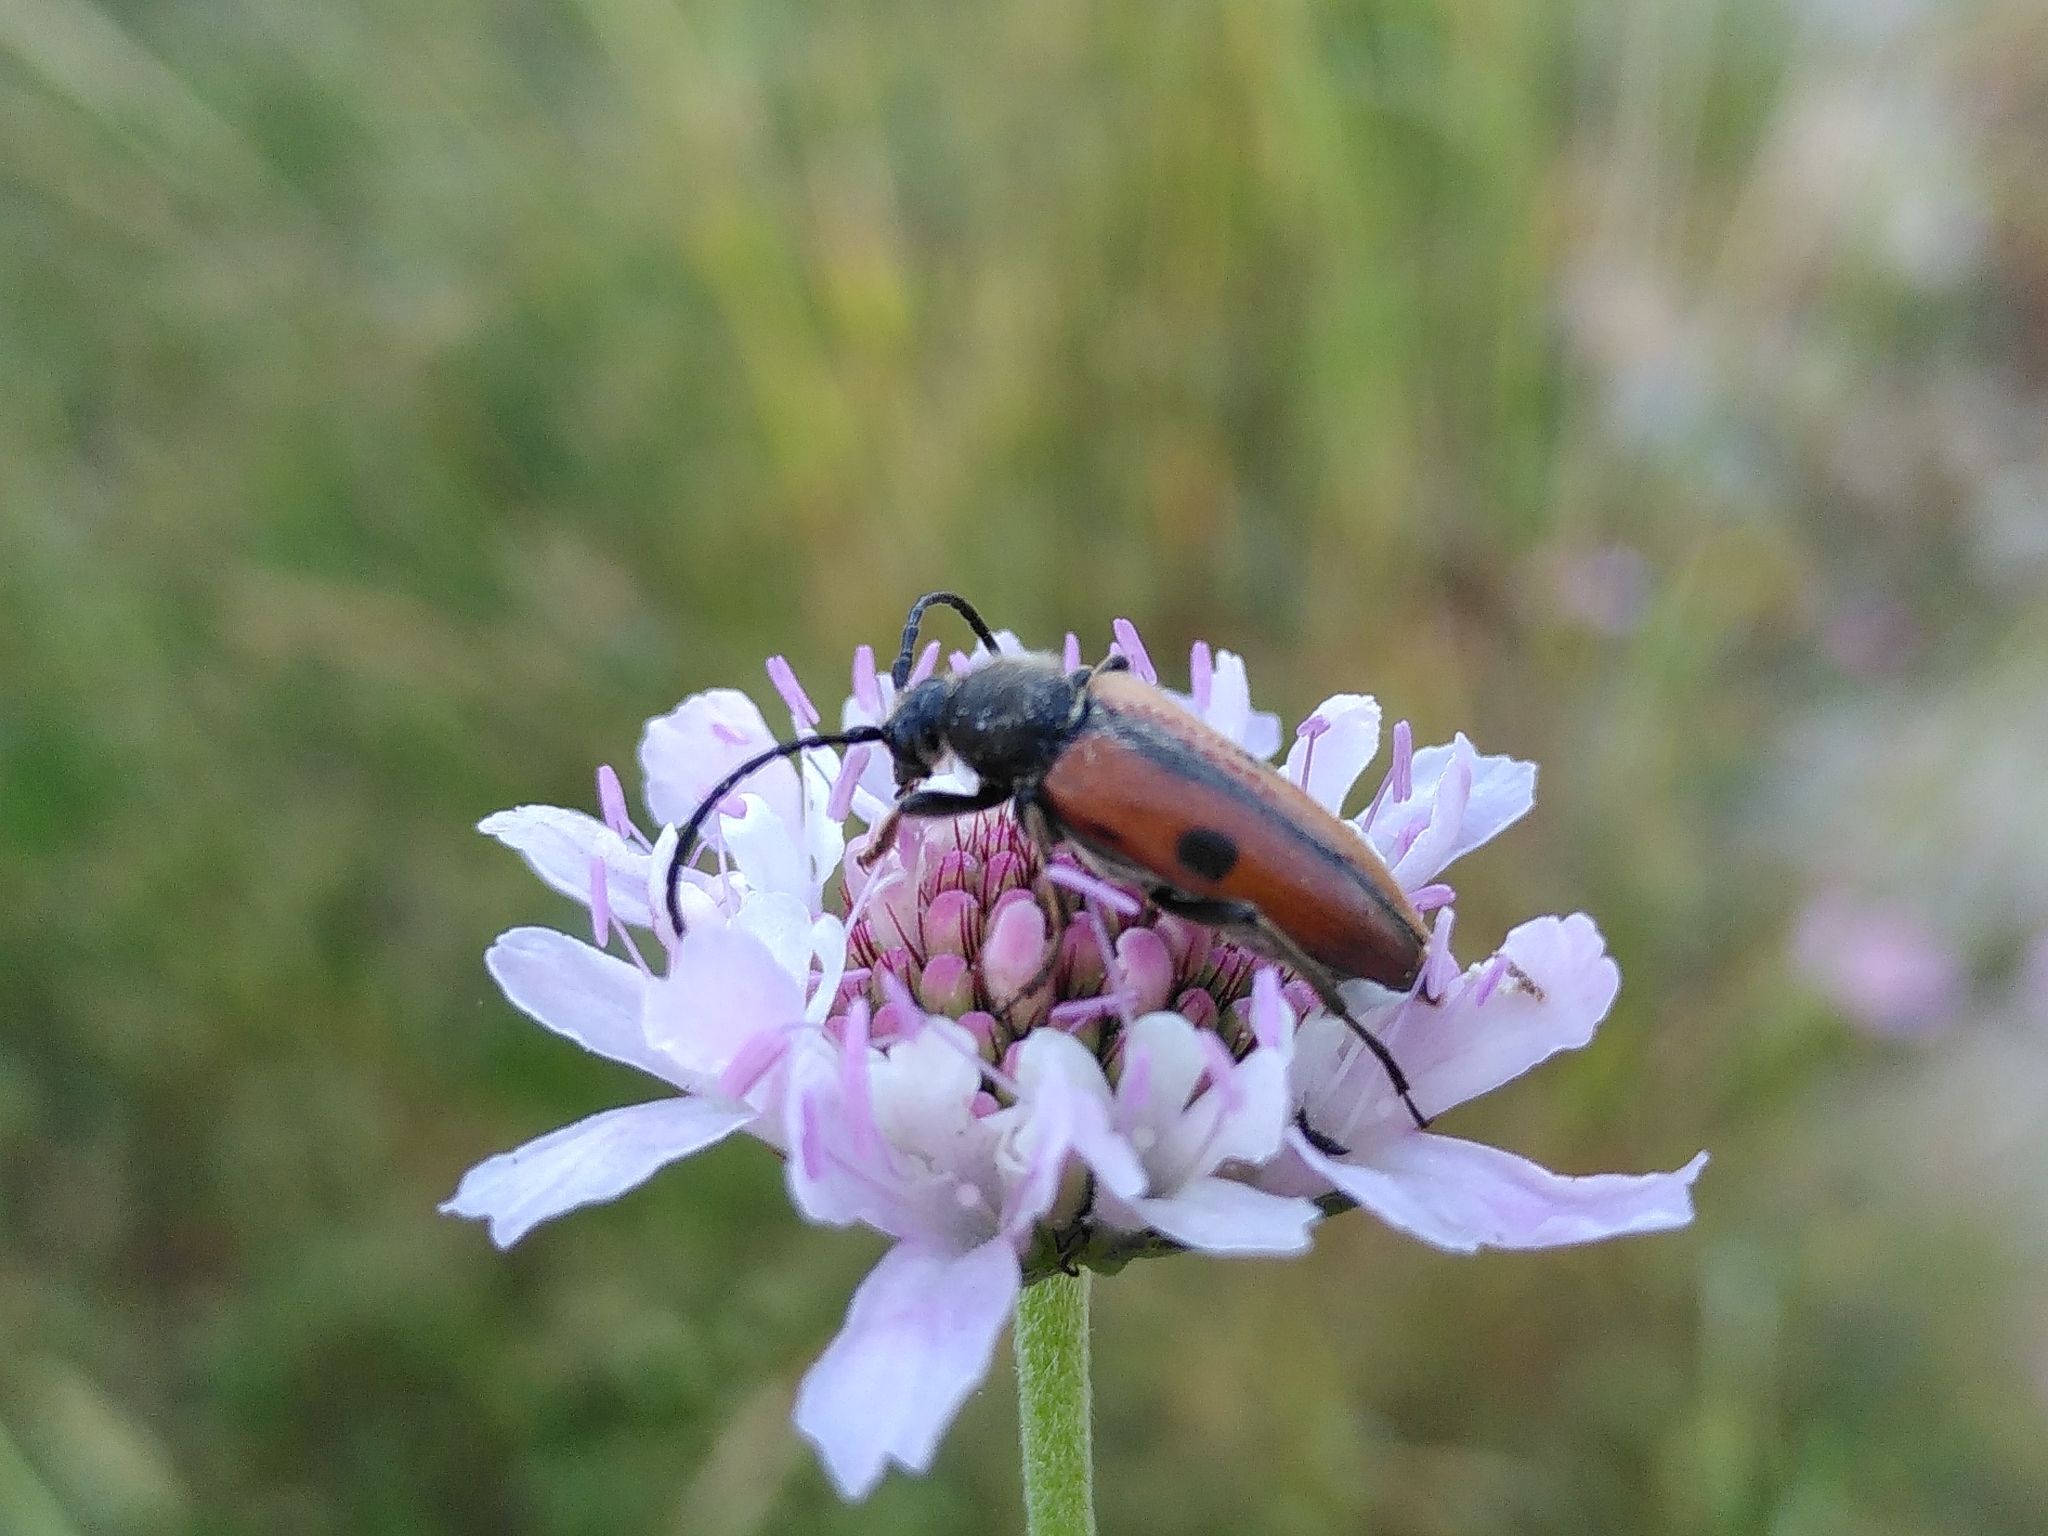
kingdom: Animalia
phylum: Arthropoda
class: Insecta
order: Coleoptera
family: Cerambycidae
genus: Vadonia
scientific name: Vadonia unipunctata
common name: Long-horned beetle
